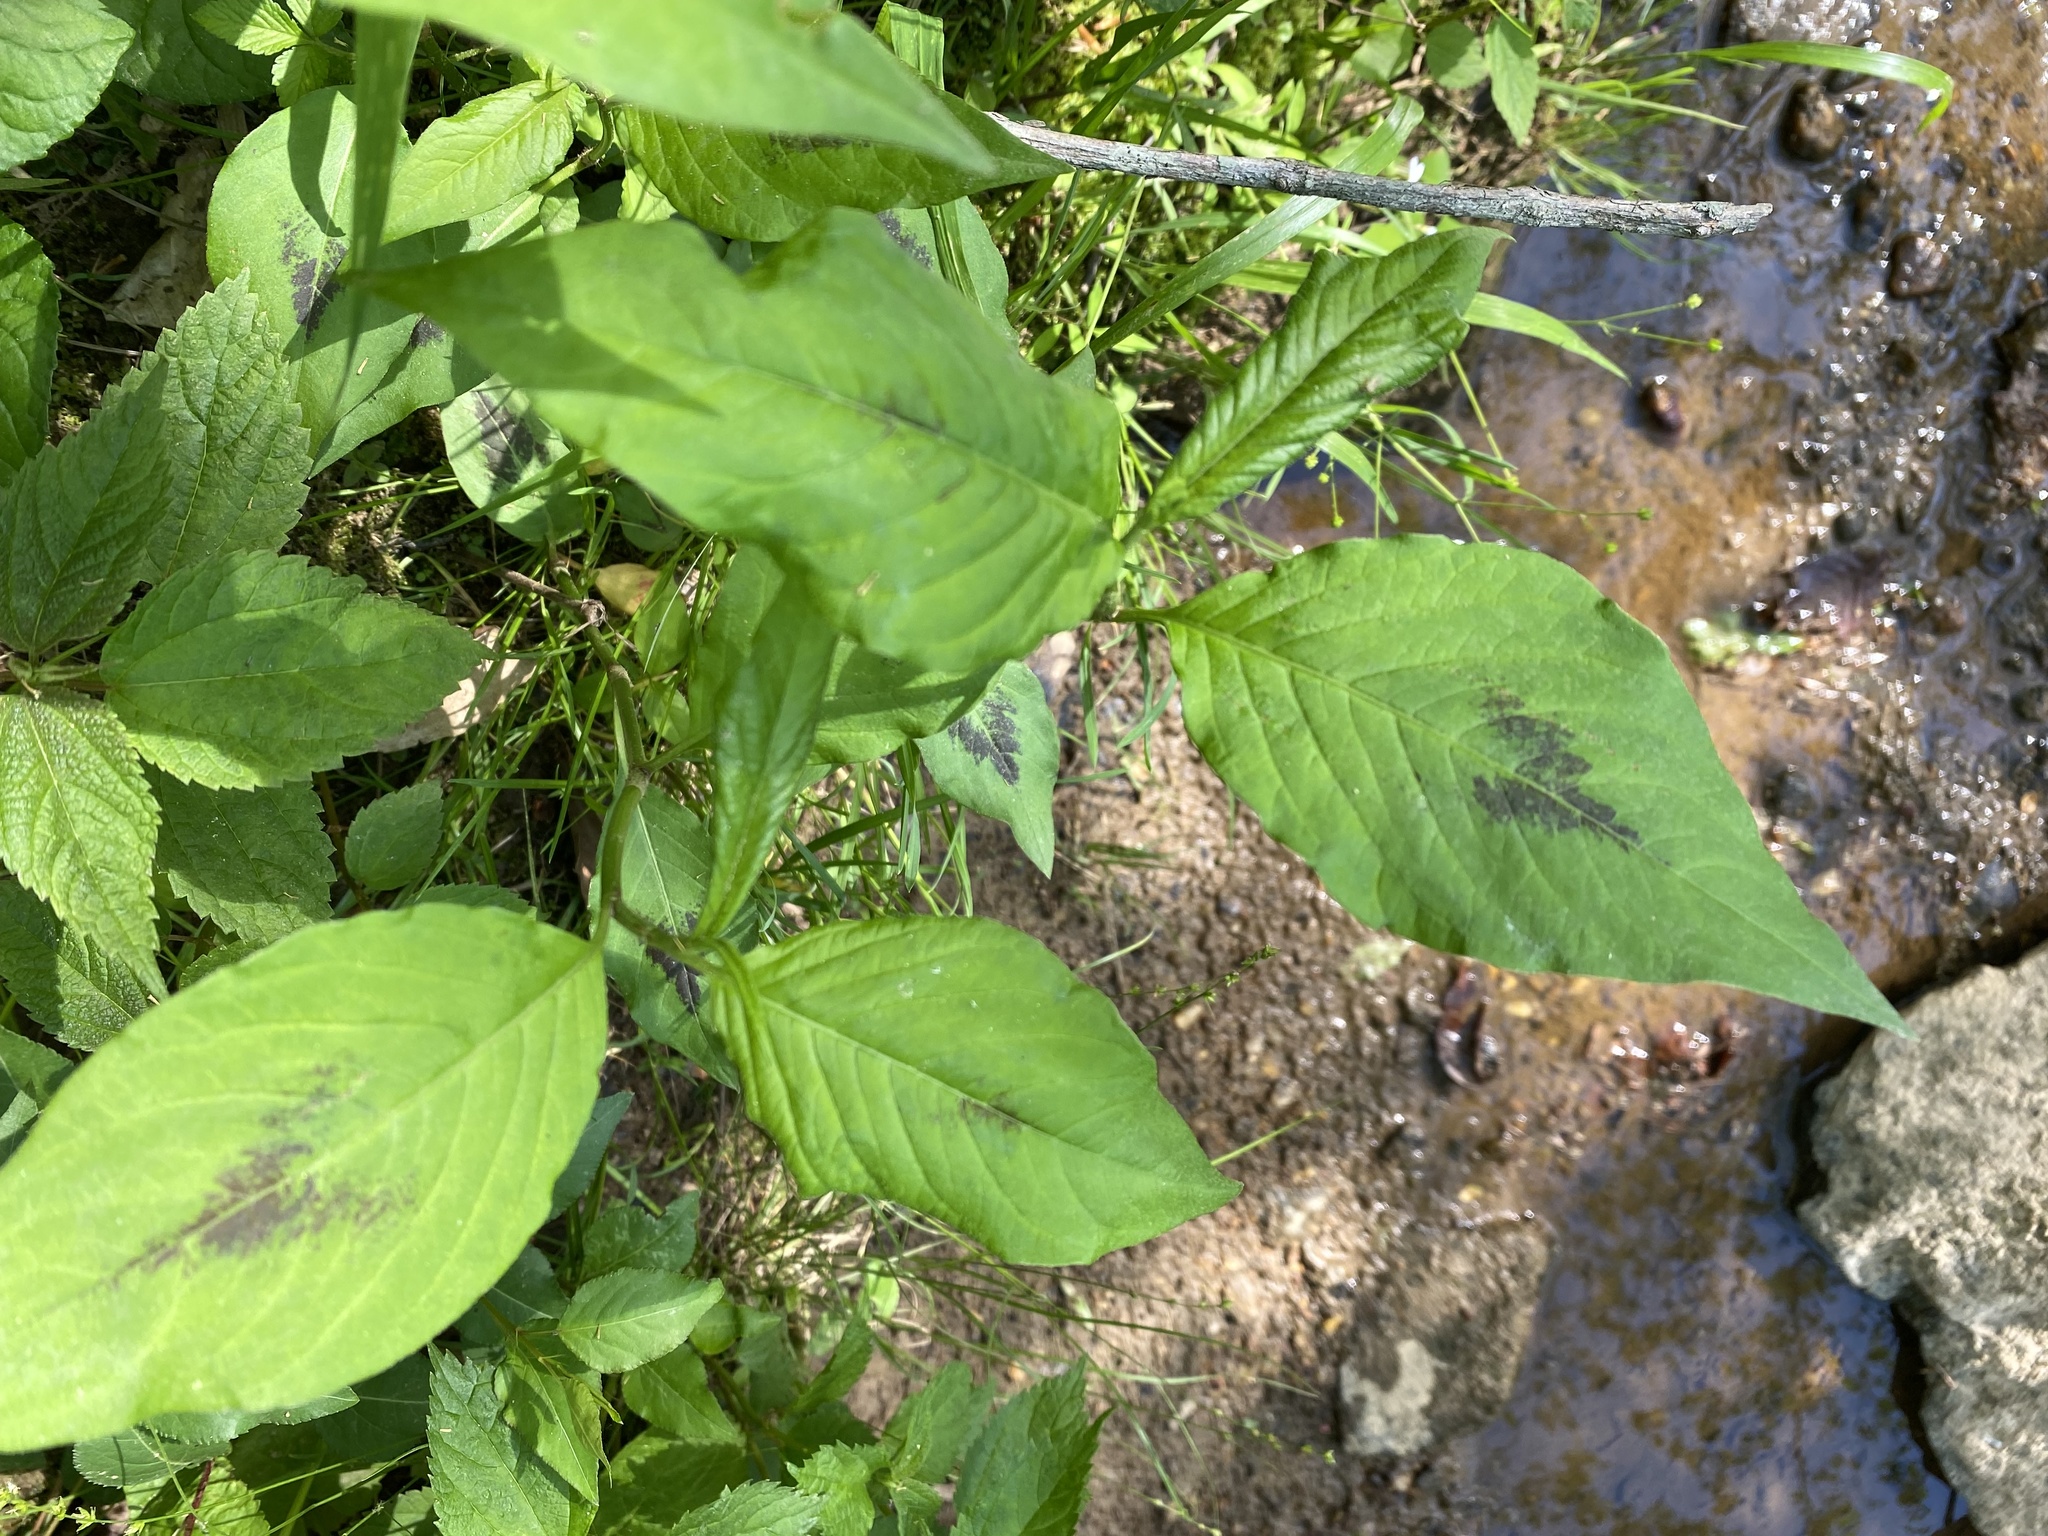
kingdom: Plantae
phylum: Tracheophyta
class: Magnoliopsida
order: Caryophyllales
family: Polygonaceae
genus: Persicaria
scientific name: Persicaria virginiana
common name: Jumpseed
